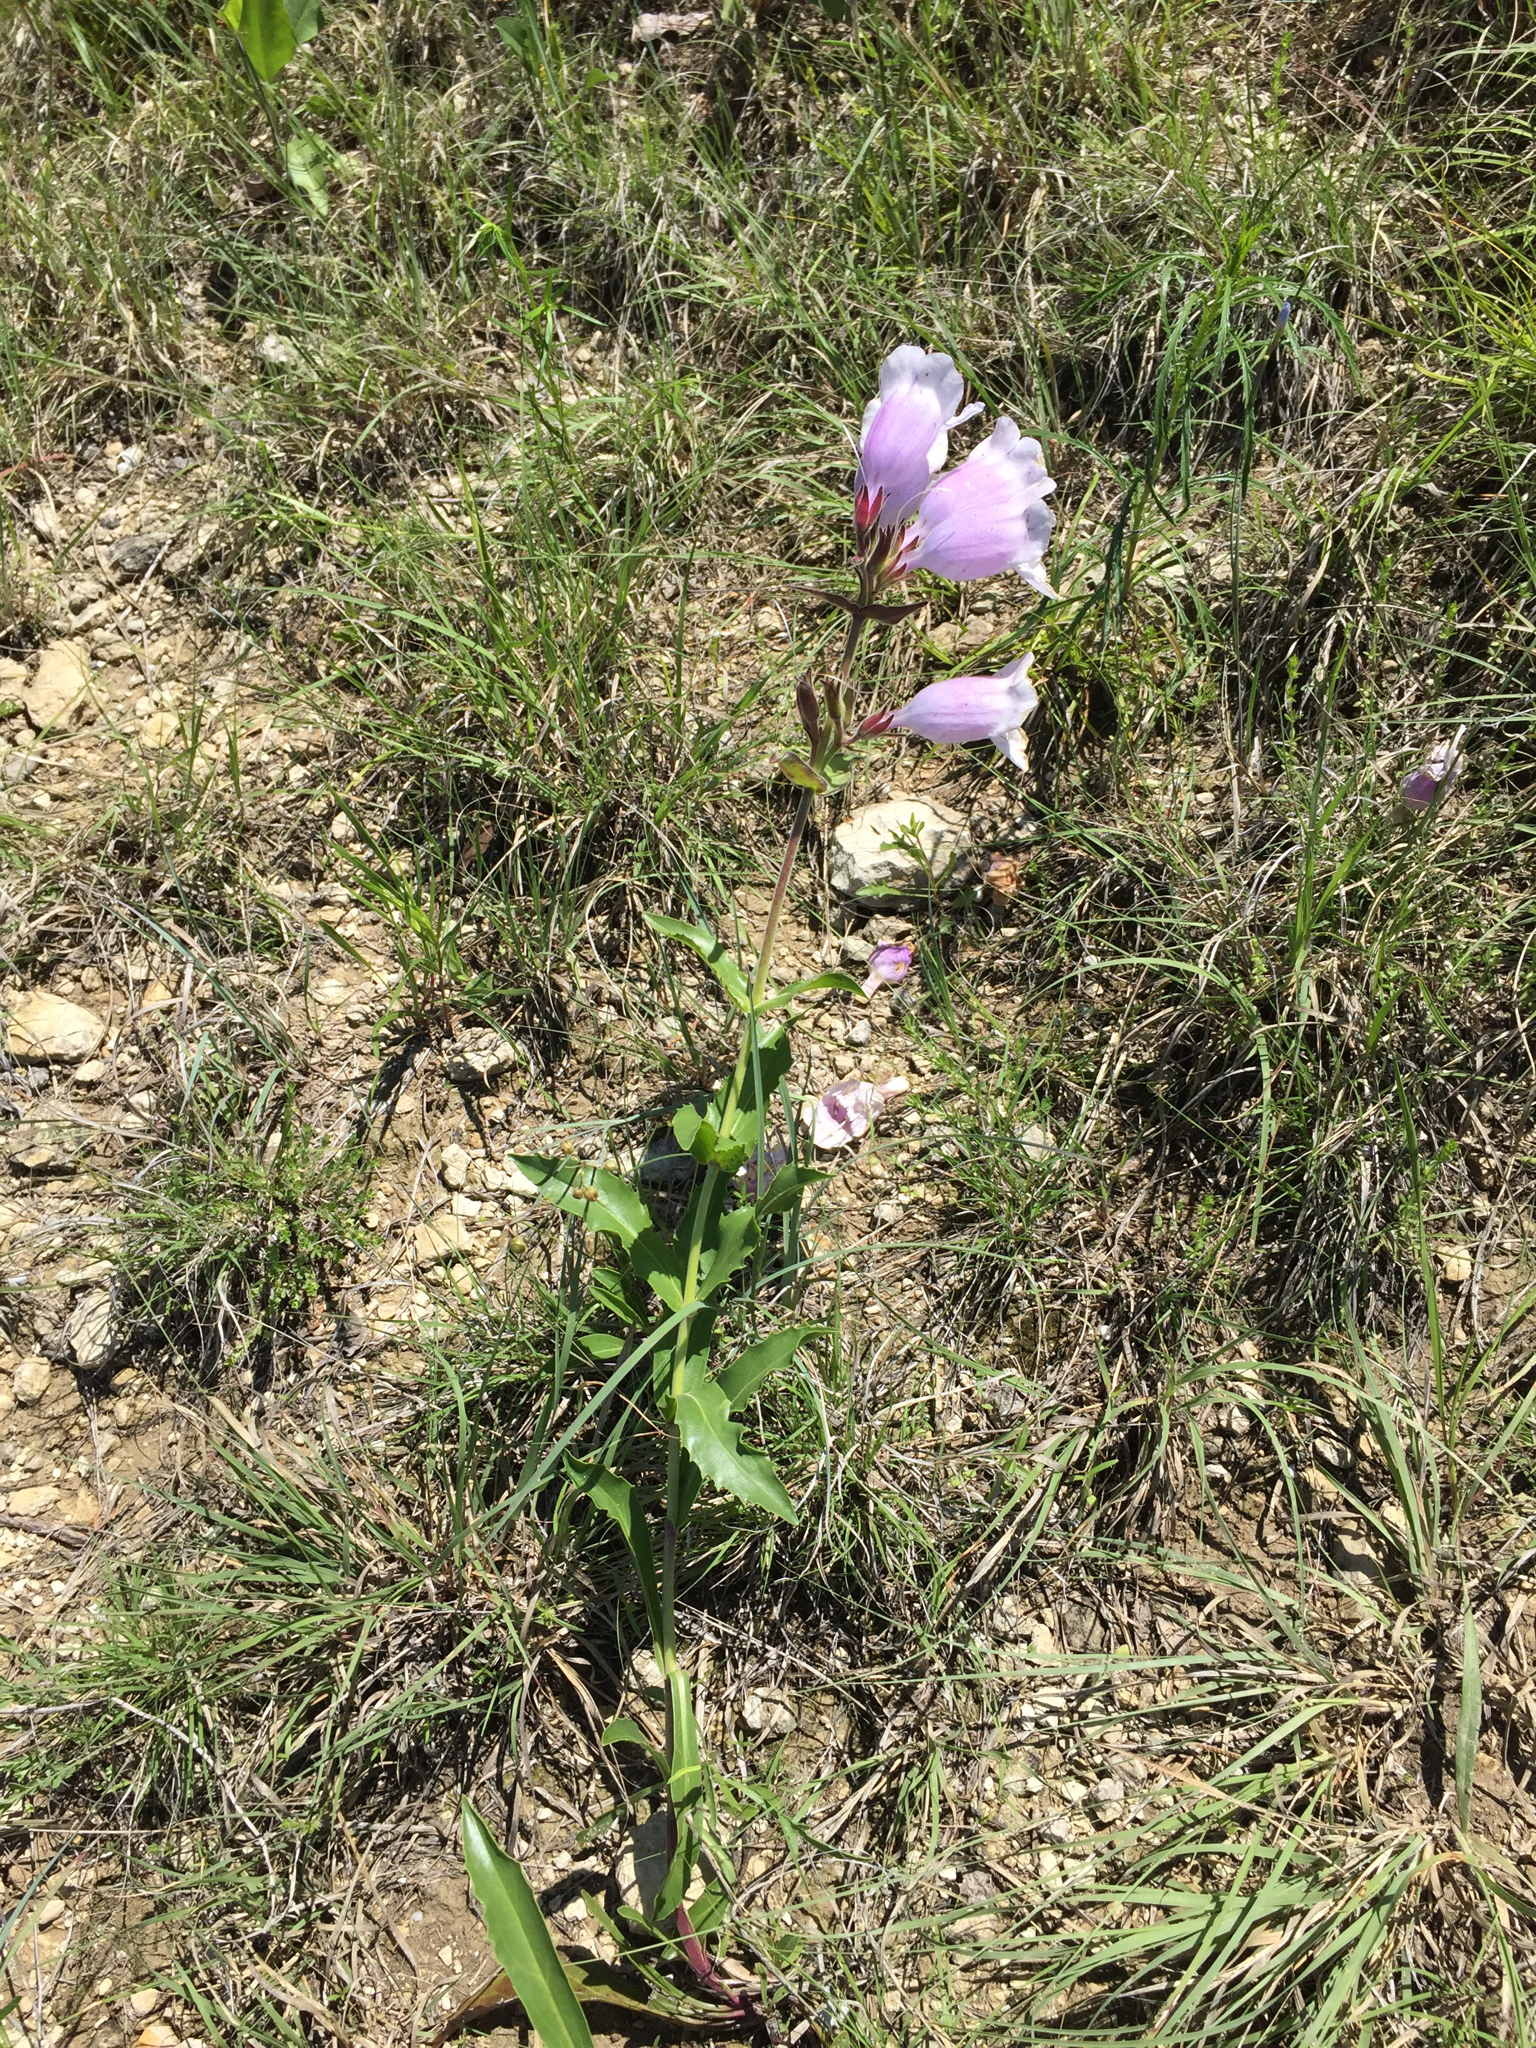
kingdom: Plantae
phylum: Tracheophyta
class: Magnoliopsida
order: Lamiales
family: Plantaginaceae
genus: Penstemon
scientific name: Penstemon cobaea
